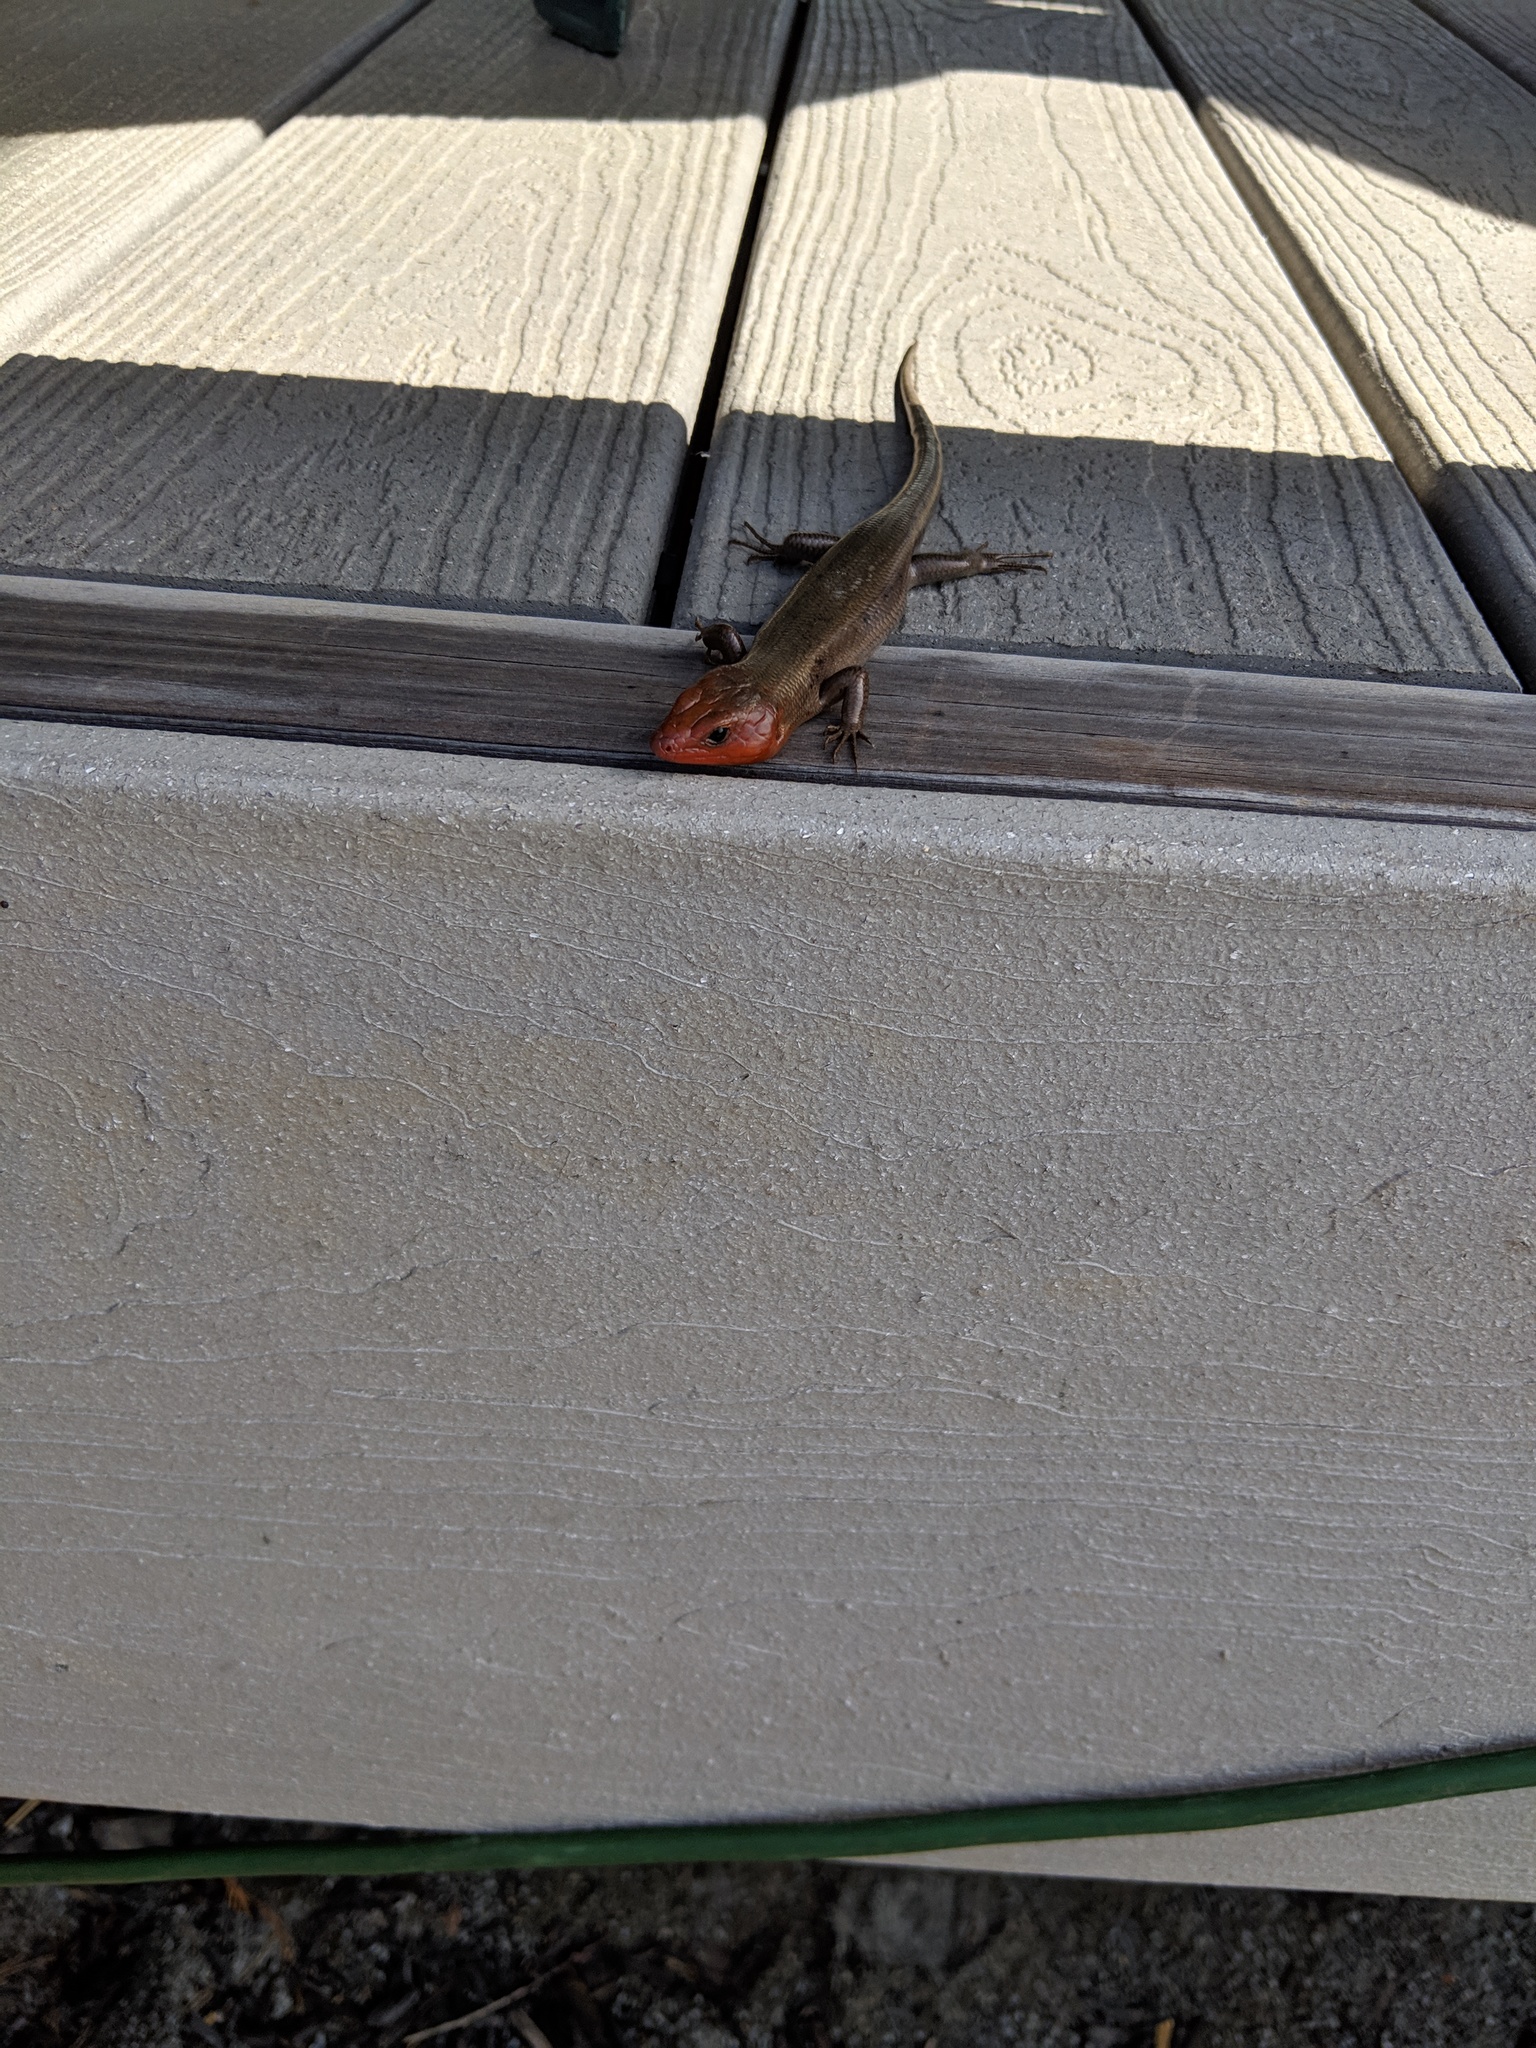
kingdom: Animalia
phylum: Chordata
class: Squamata
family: Scincidae
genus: Plestiodon
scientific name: Plestiodon fasciatus
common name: Five-lined skink
